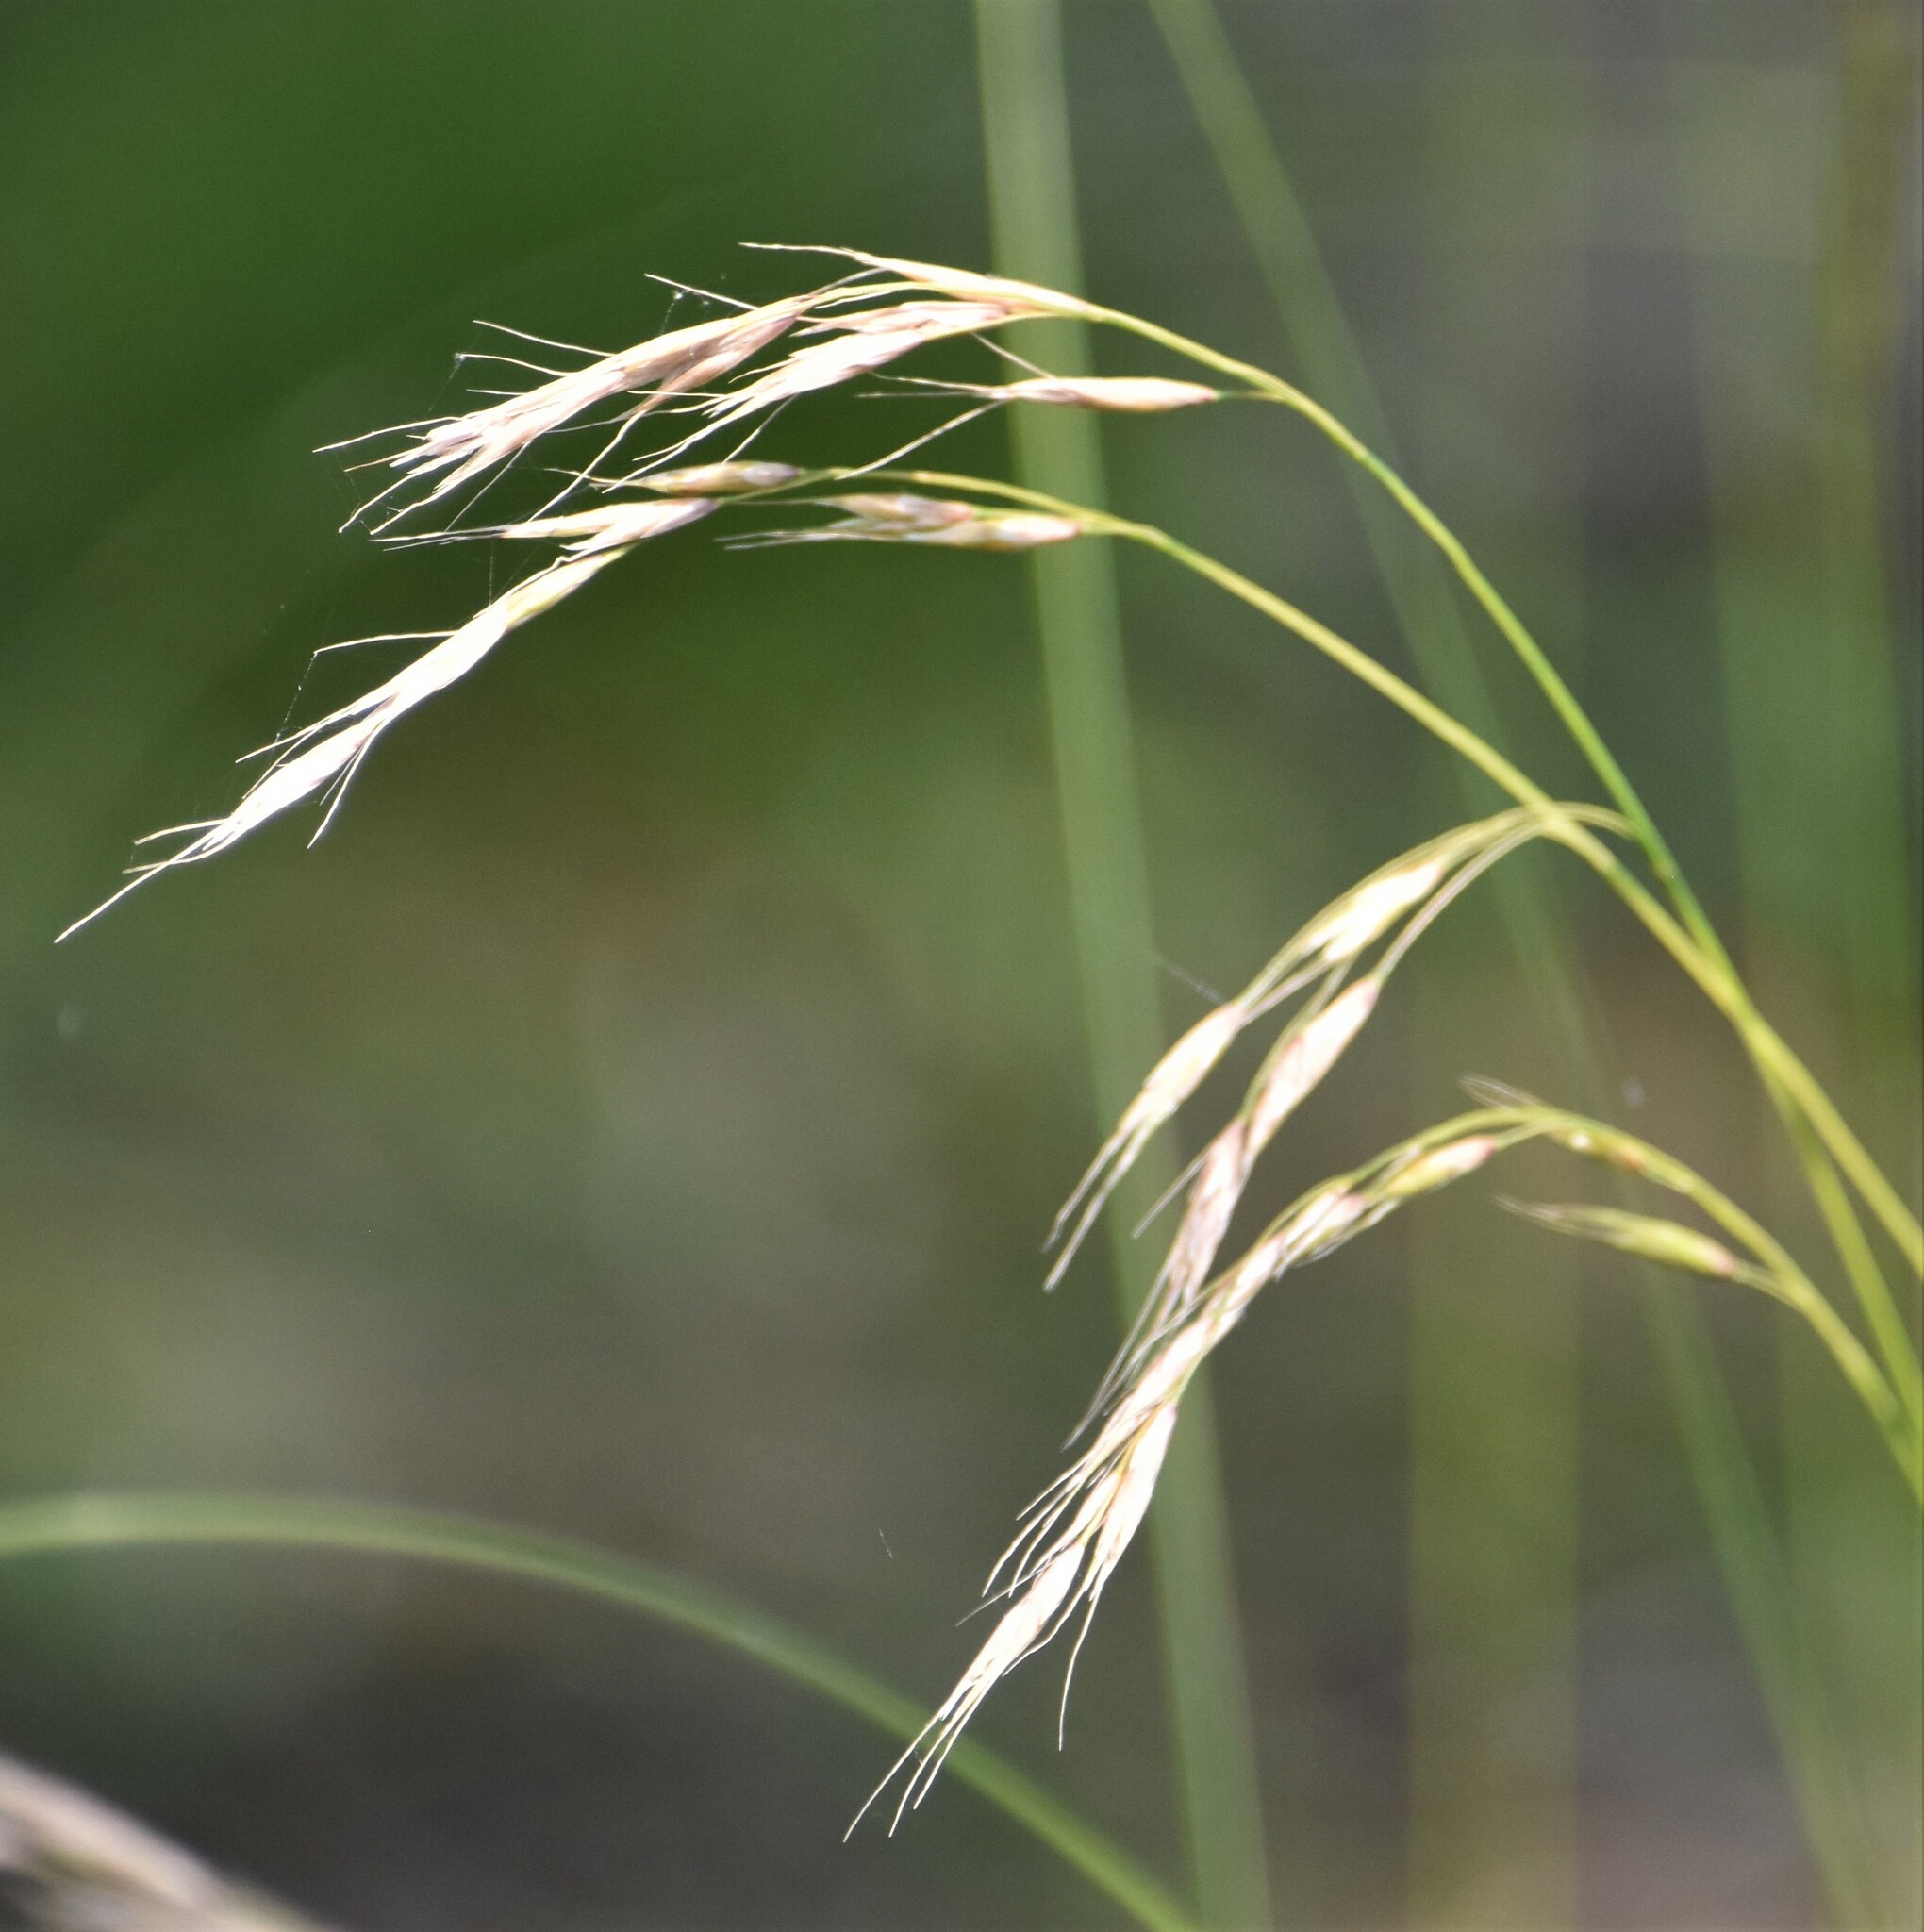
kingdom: Plantae
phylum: Tracheophyta
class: Liliopsida
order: Poales
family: Poaceae
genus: Schizachne
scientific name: Schizachne purpurascens
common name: False melic
